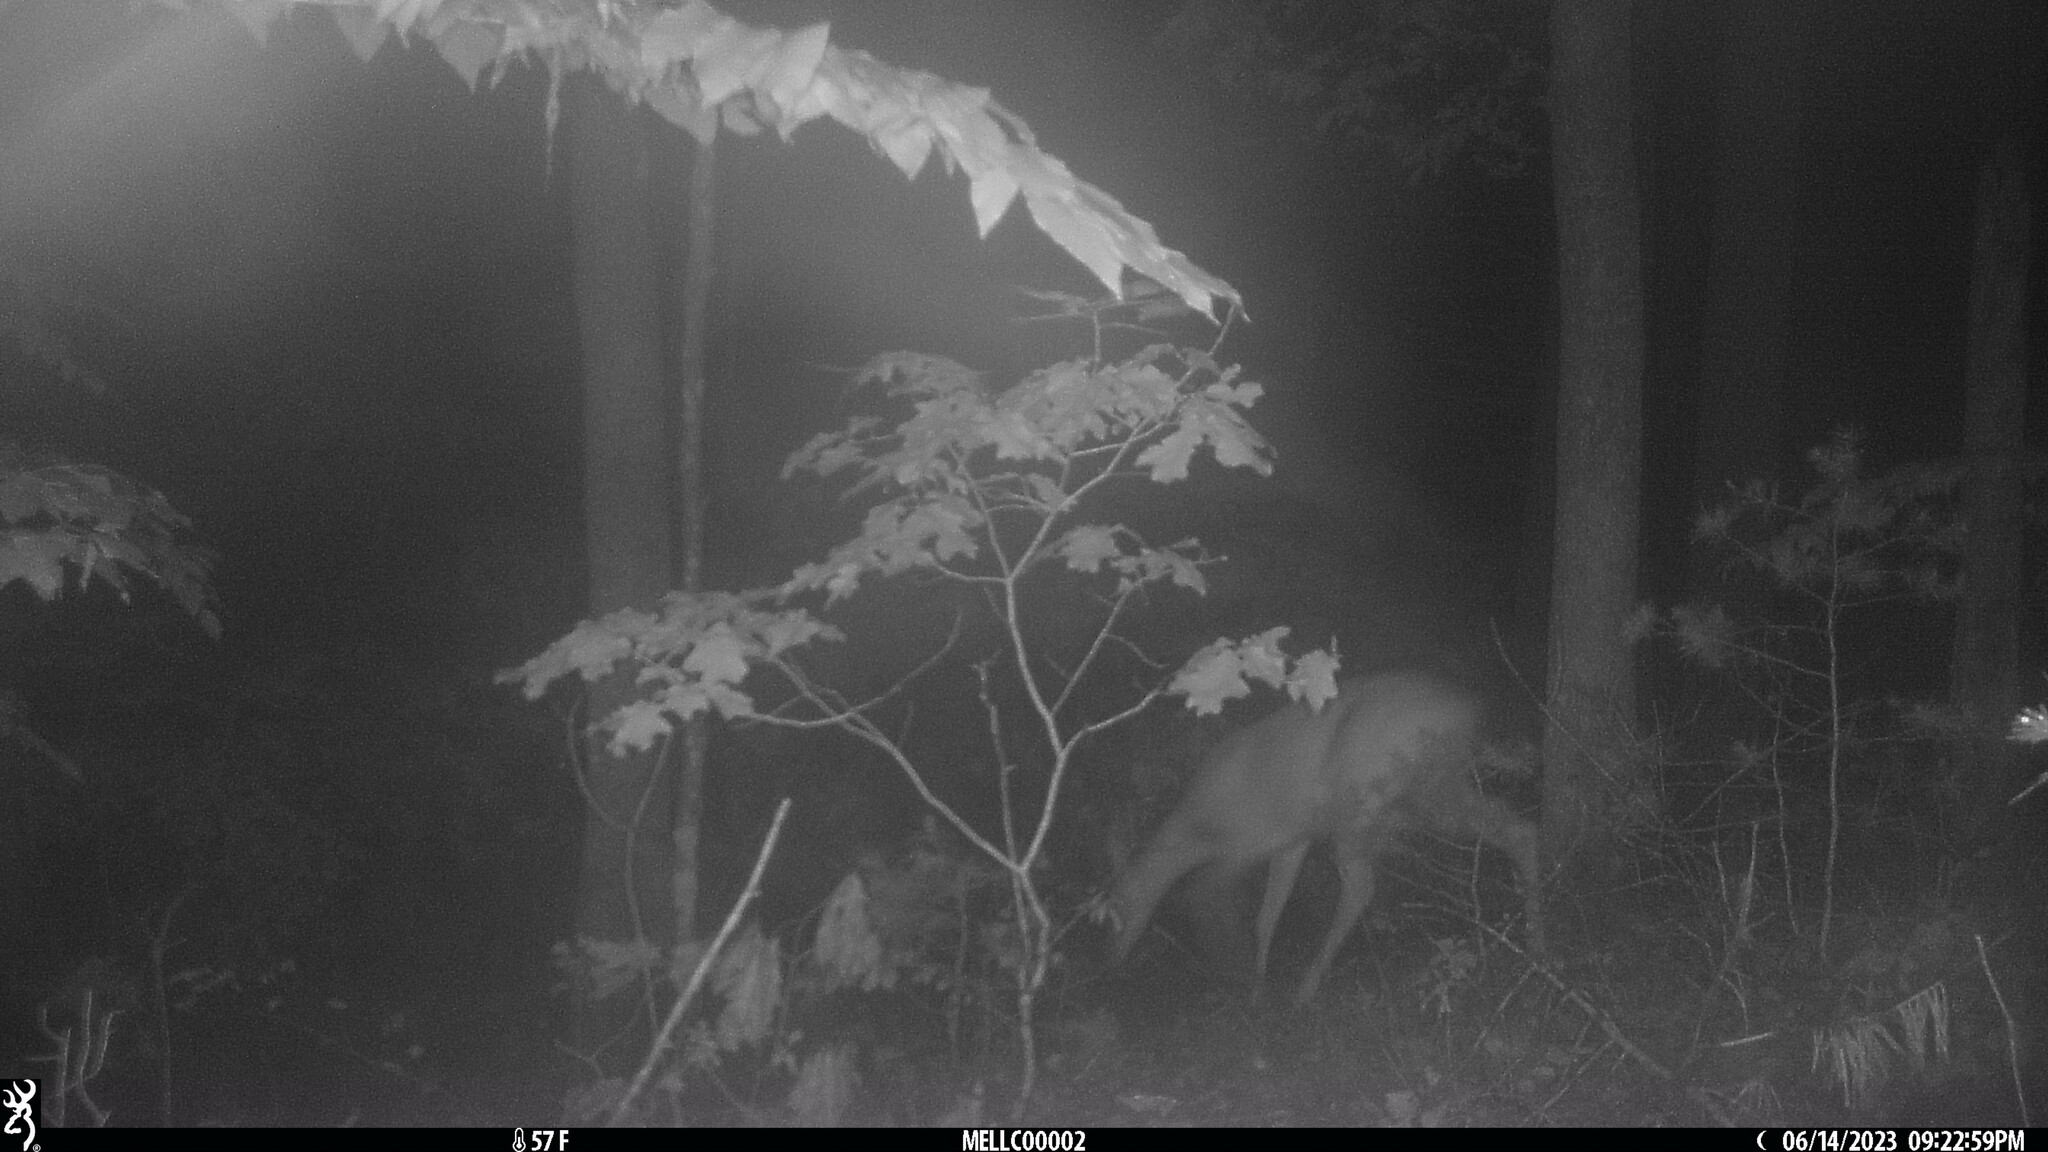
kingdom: Animalia
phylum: Chordata
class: Mammalia
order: Artiodactyla
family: Cervidae
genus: Odocoileus
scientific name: Odocoileus virginianus
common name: White-tailed deer
